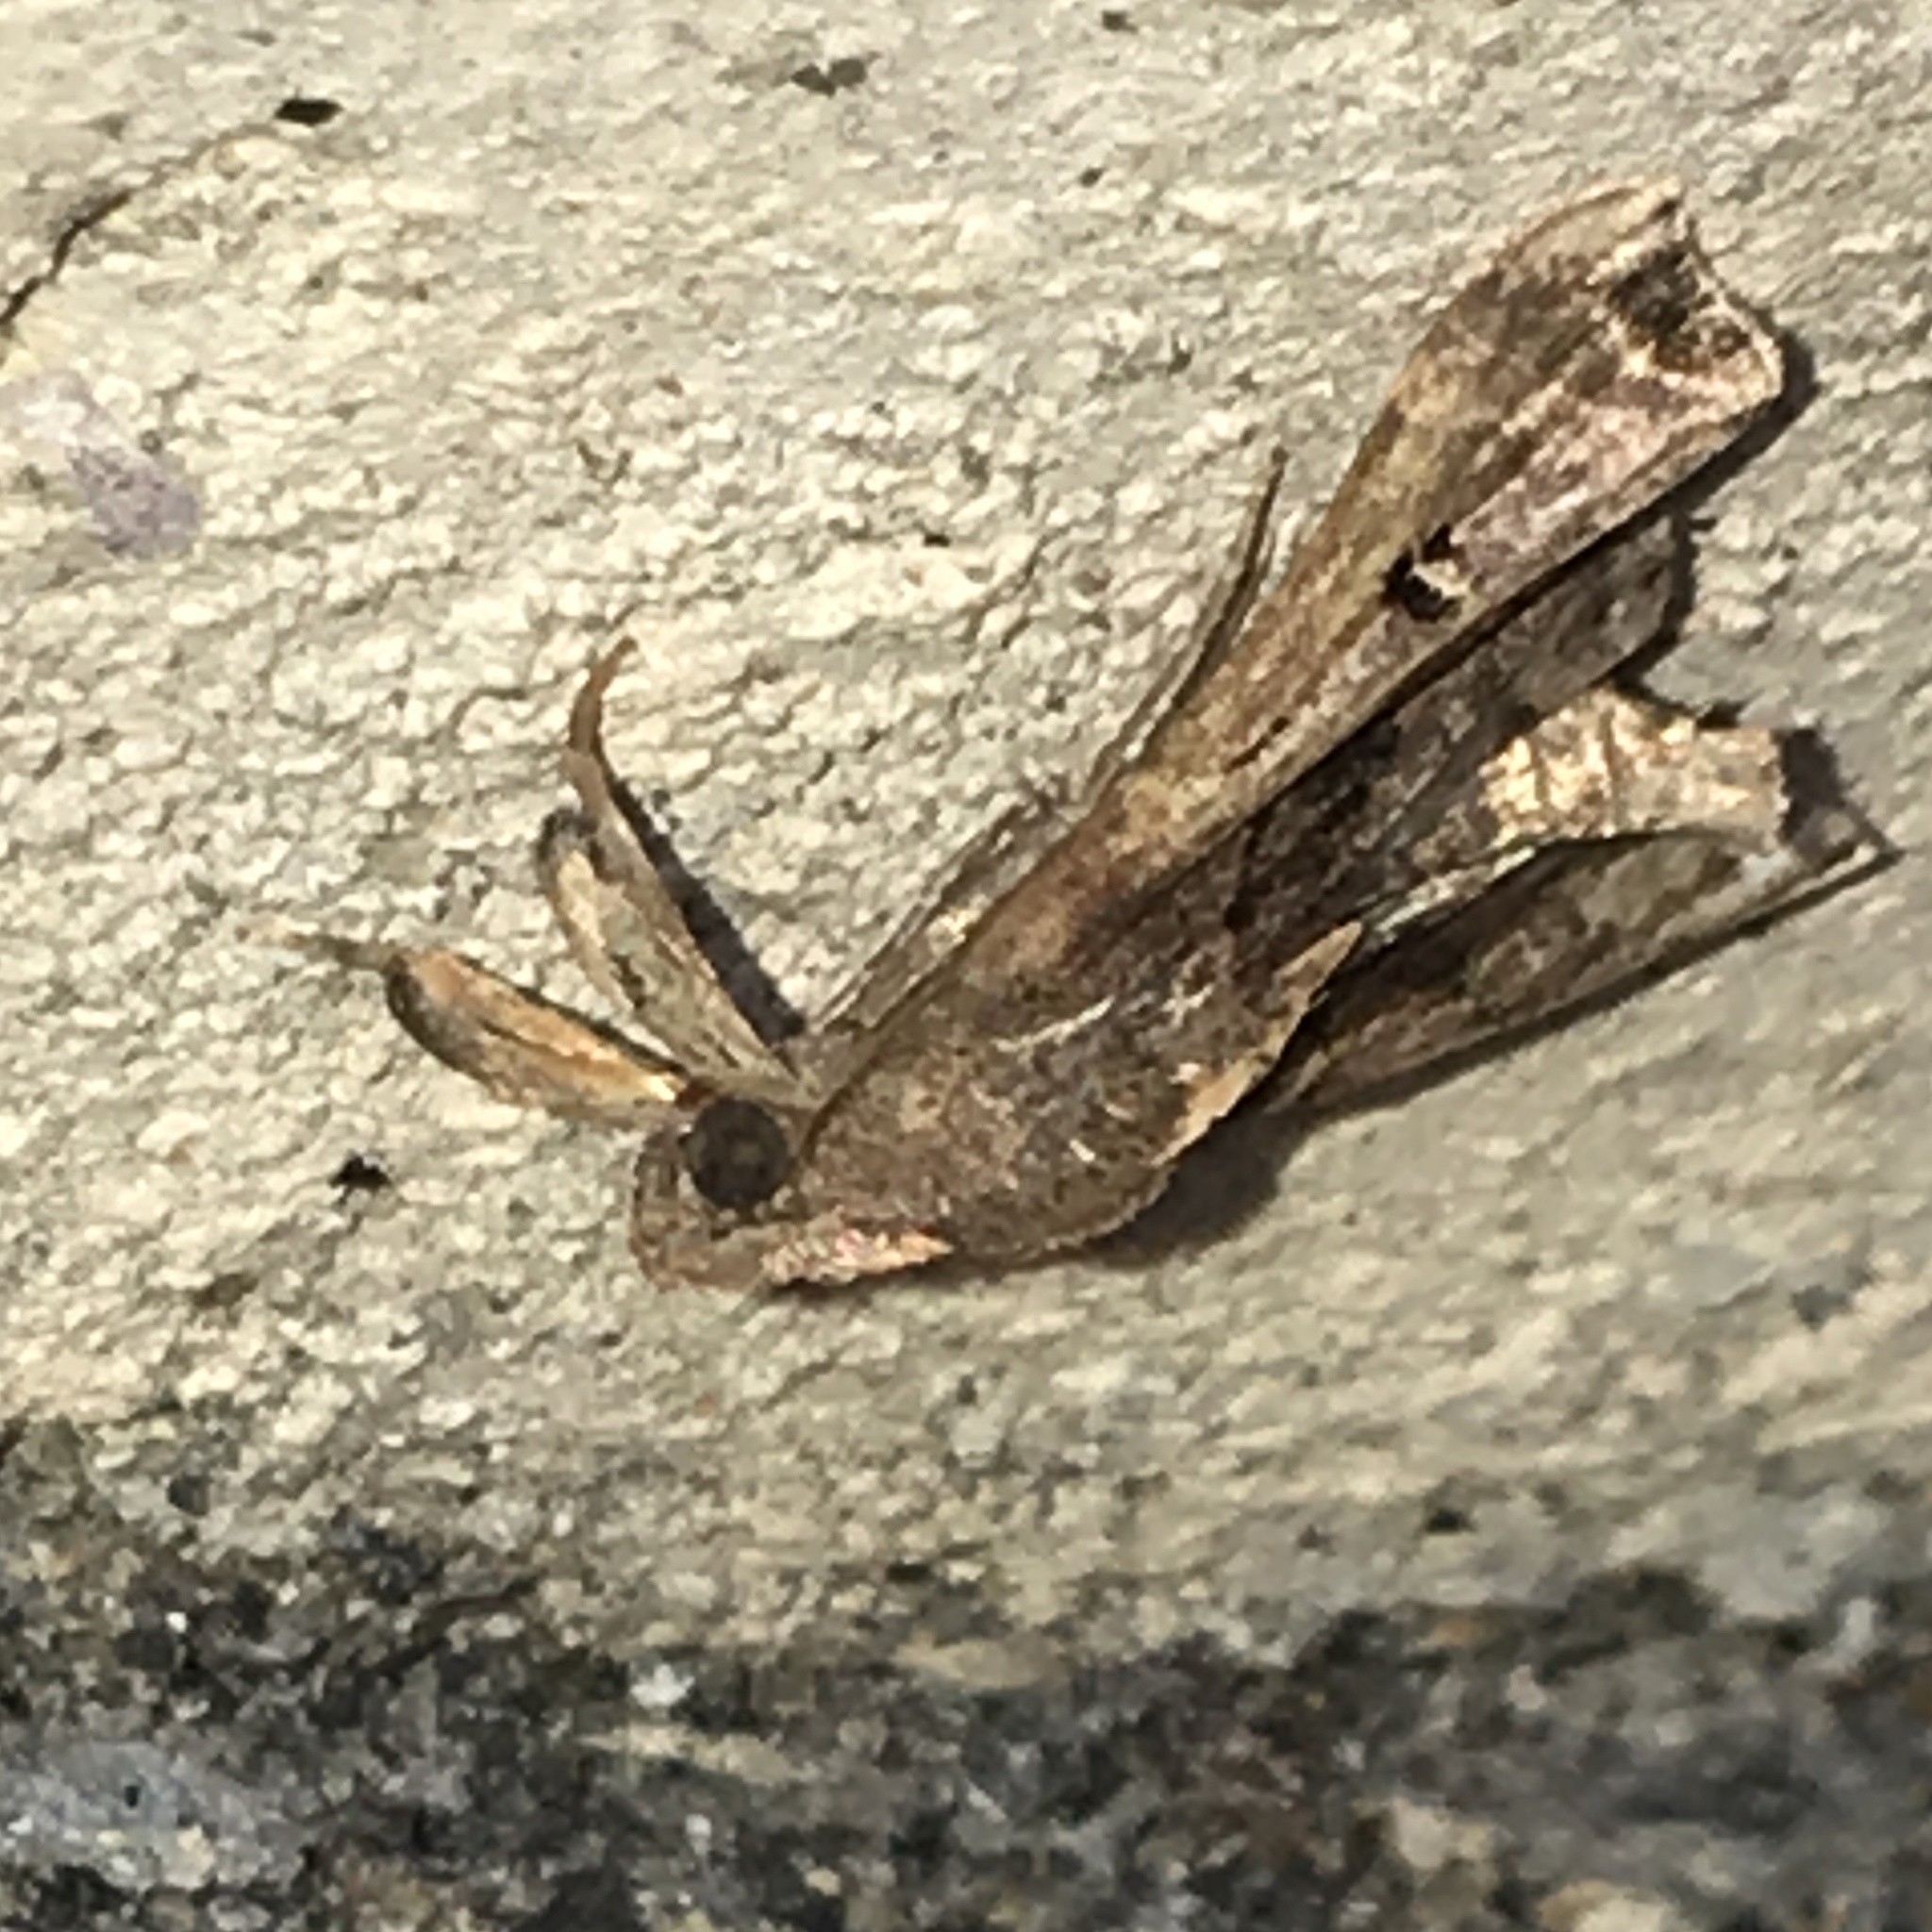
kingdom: Animalia
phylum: Arthropoda
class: Insecta
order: Lepidoptera
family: Erebidae
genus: Palthis
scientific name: Palthis asopialis
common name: Faint-spotted palthis moth
